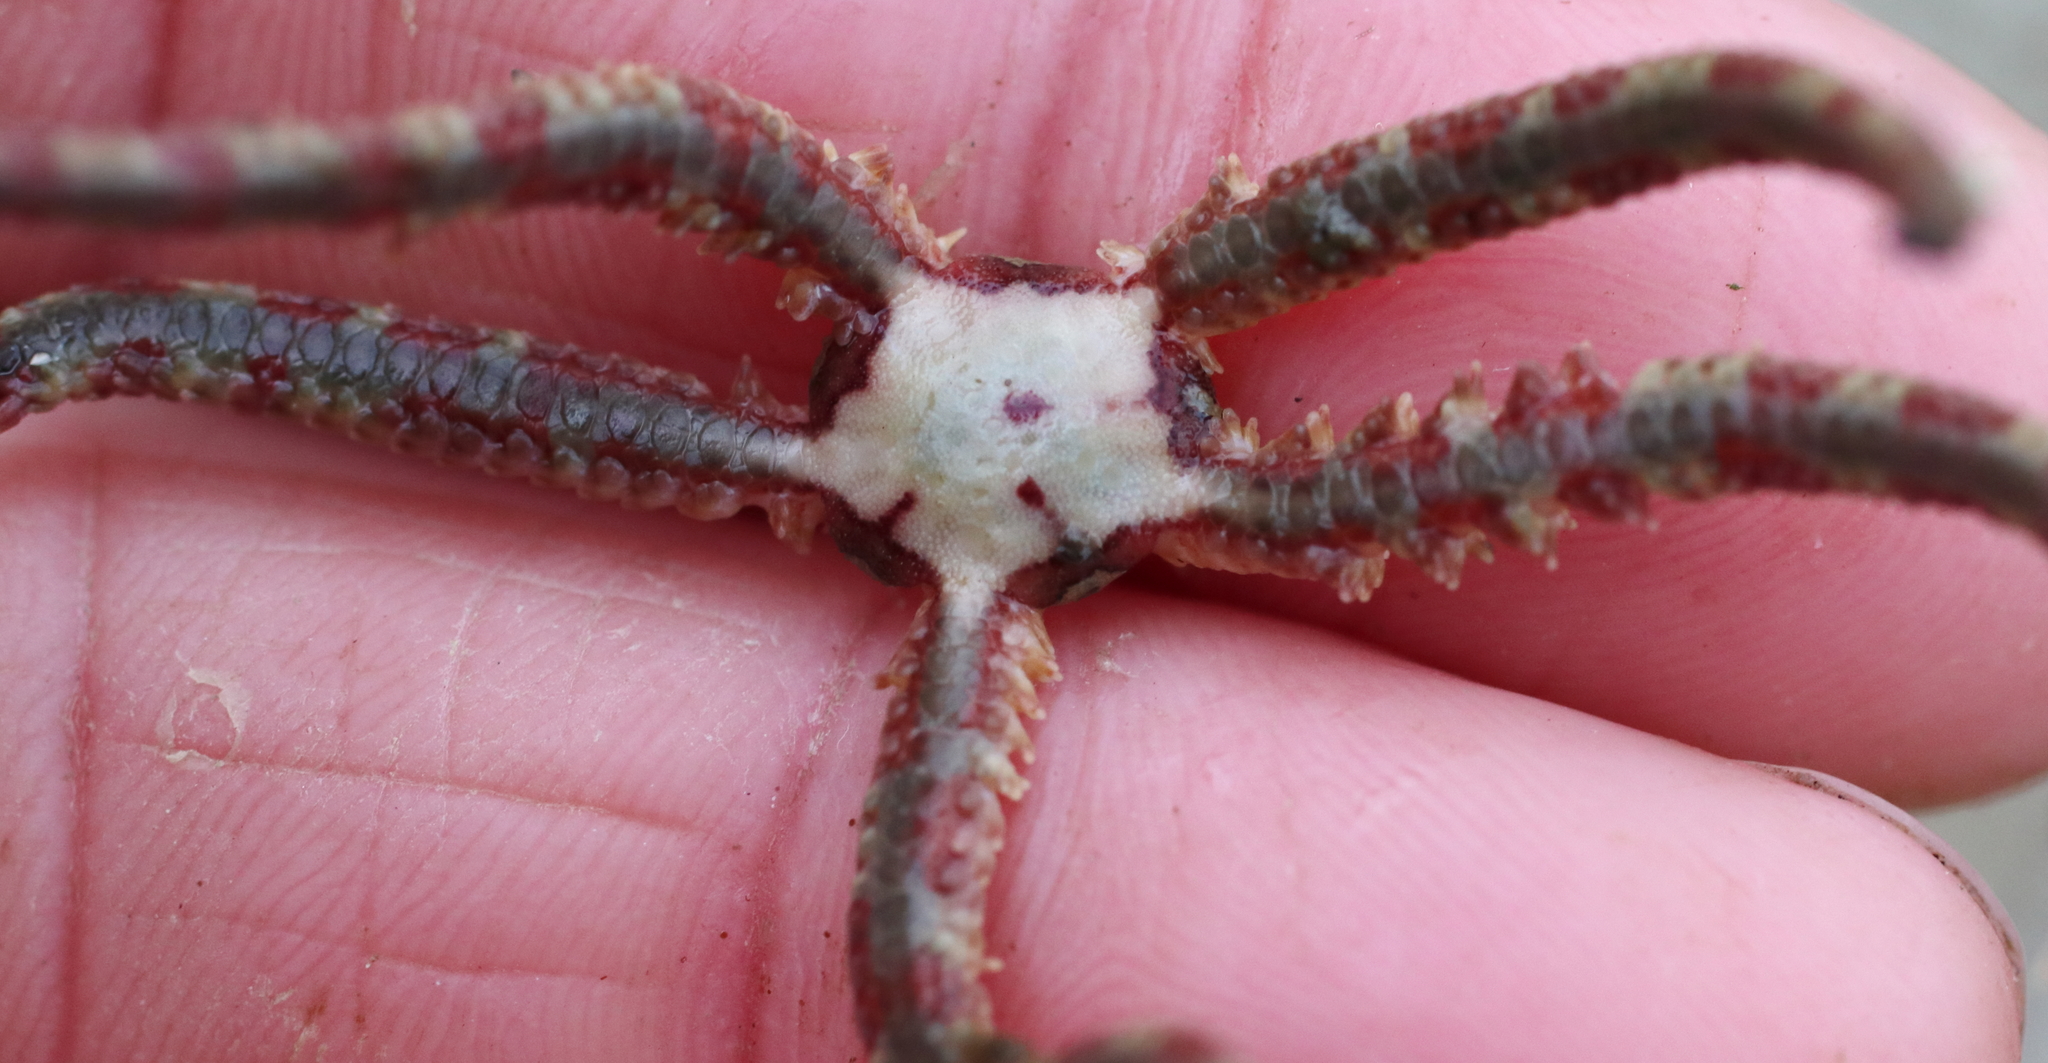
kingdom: Animalia
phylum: Echinodermata
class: Ophiuroidea
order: Amphilepidida
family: Ophiopholidae
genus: Ophiopholis
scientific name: Ophiopholis kennerlyi
